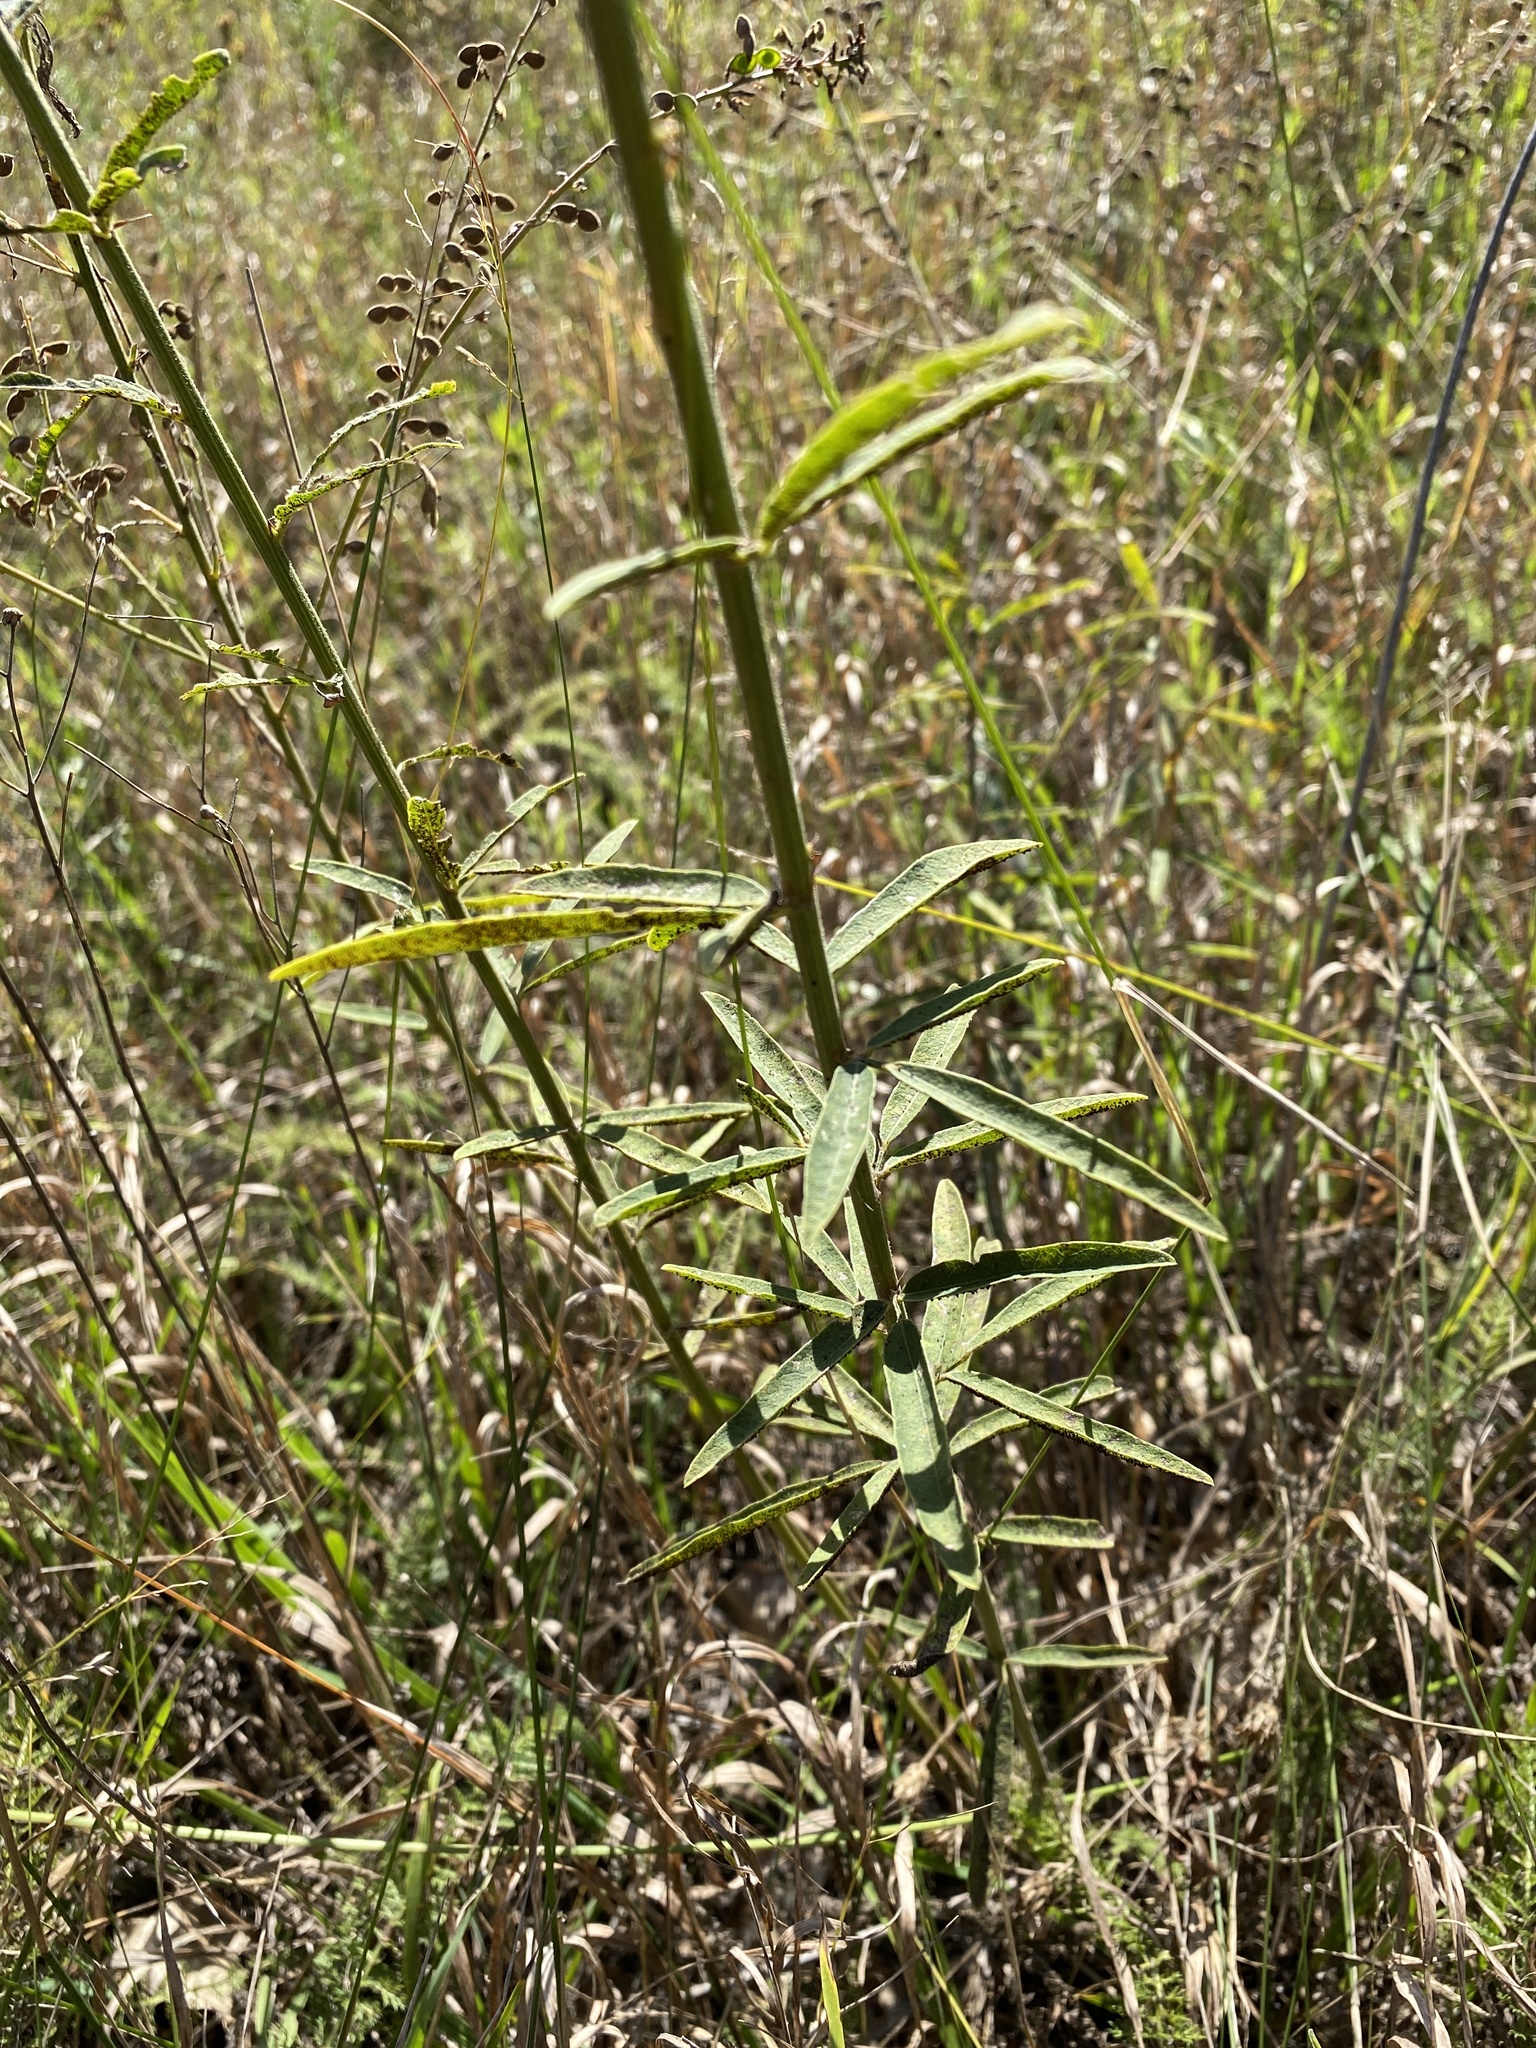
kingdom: Plantae
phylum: Tracheophyta
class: Magnoliopsida
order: Fabales
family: Fabaceae
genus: Desmodium
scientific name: Desmodium sessilifolium
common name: Sessile tick-clover
